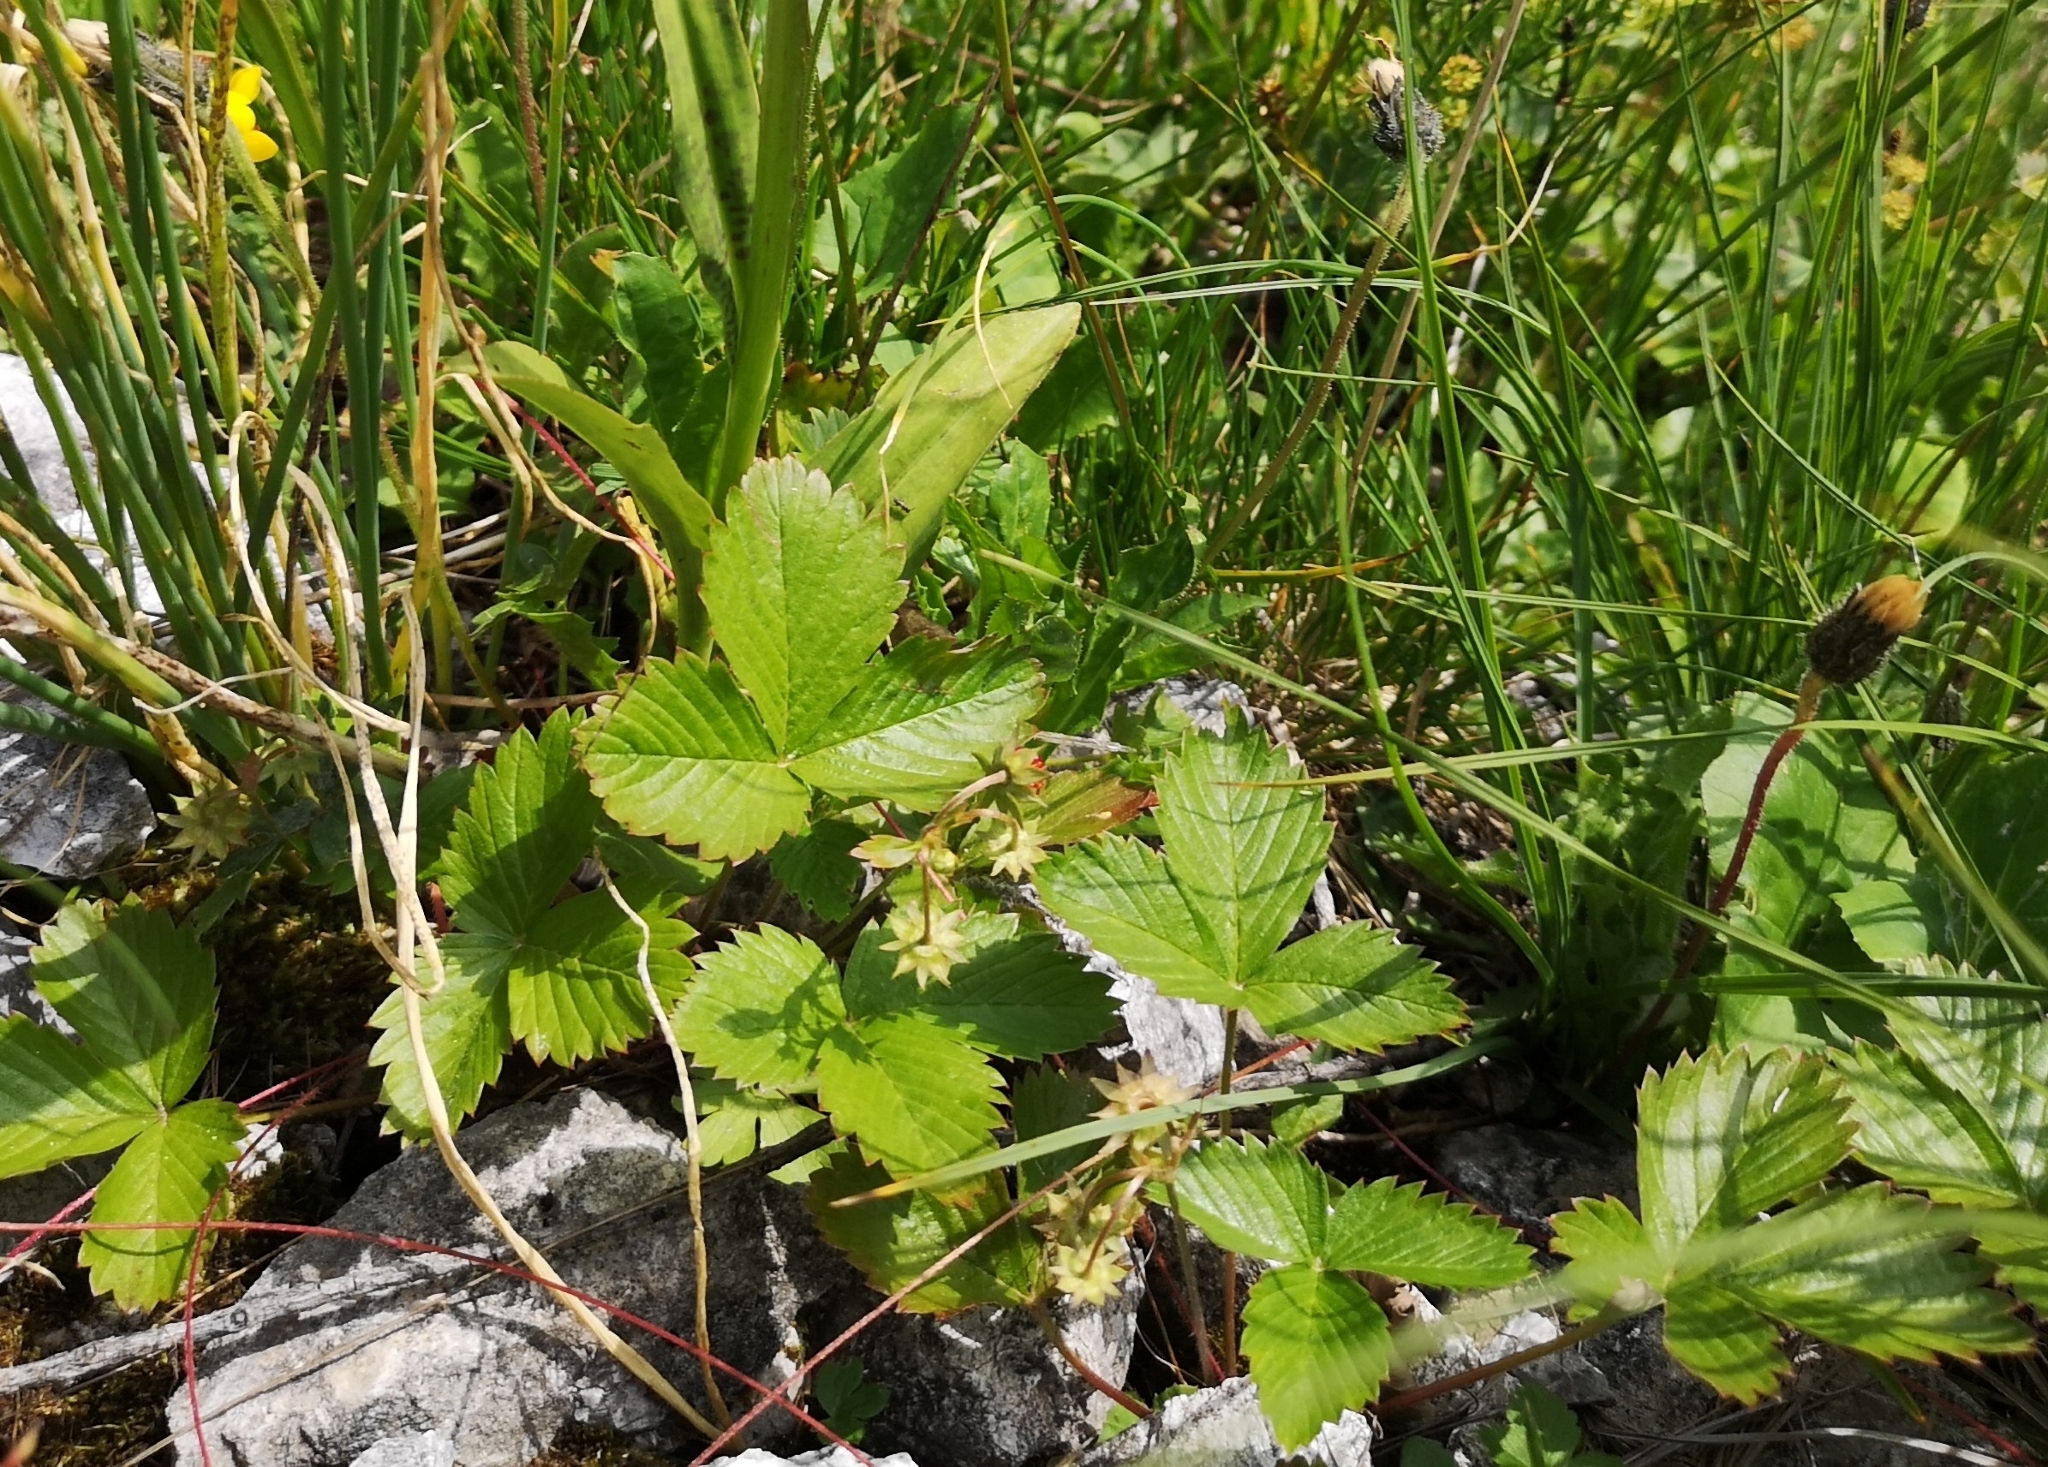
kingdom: Plantae
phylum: Tracheophyta
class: Magnoliopsida
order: Rosales
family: Rosaceae
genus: Fragaria
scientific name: Fragaria vesca
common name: Wild strawberry
